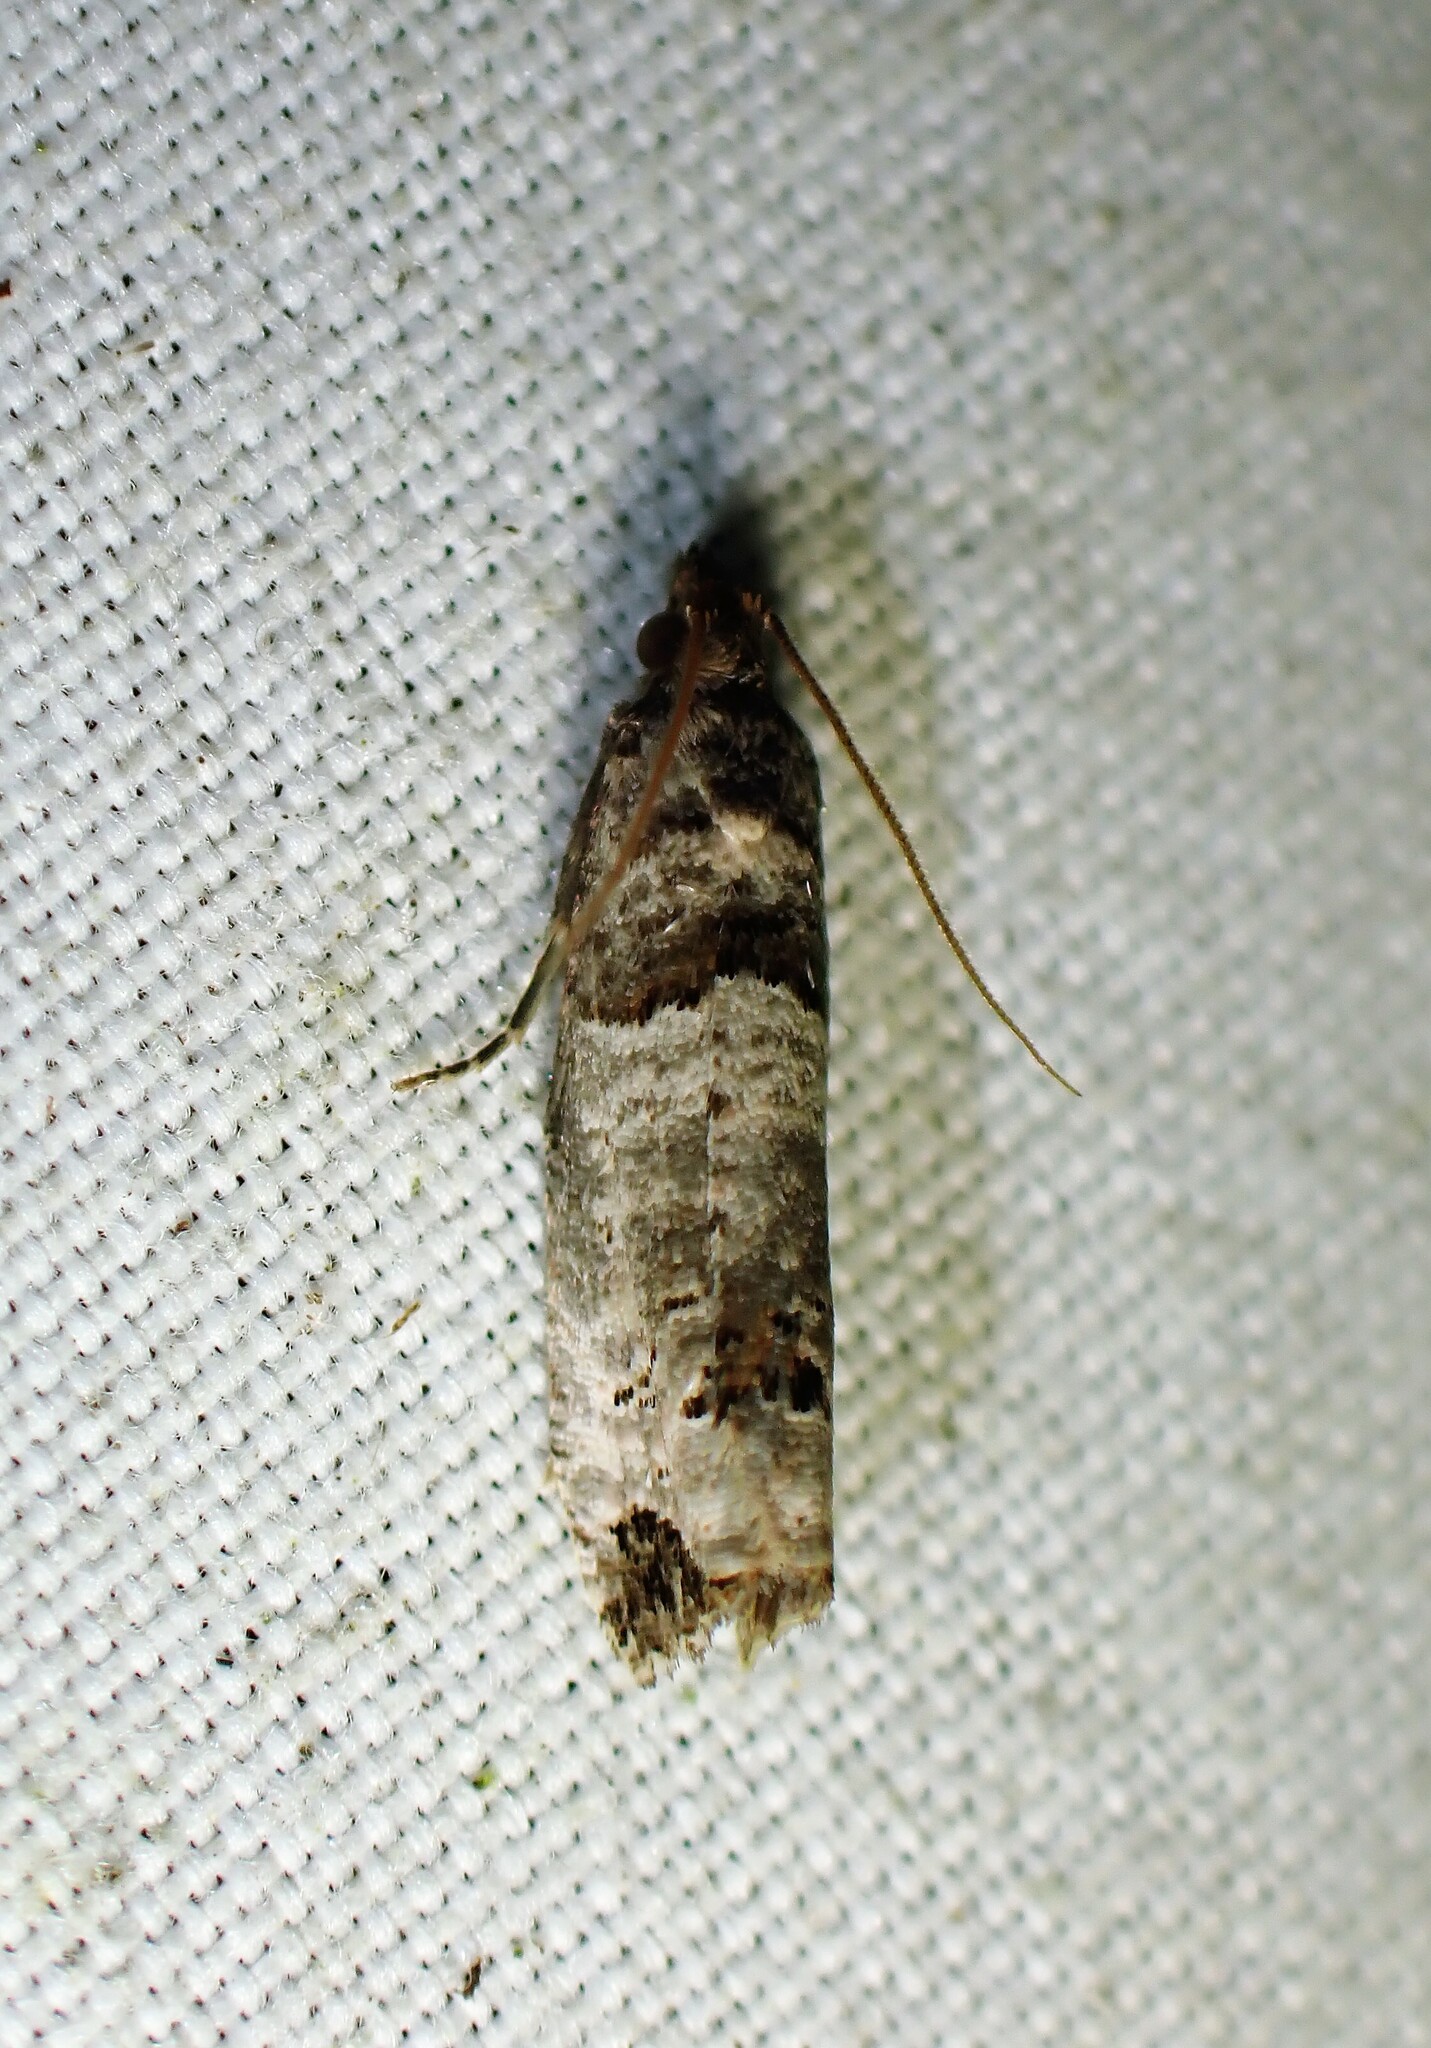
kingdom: Animalia
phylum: Arthropoda
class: Insecta
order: Lepidoptera
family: Tortricidae
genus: Notocelia
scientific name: Notocelia culminana
